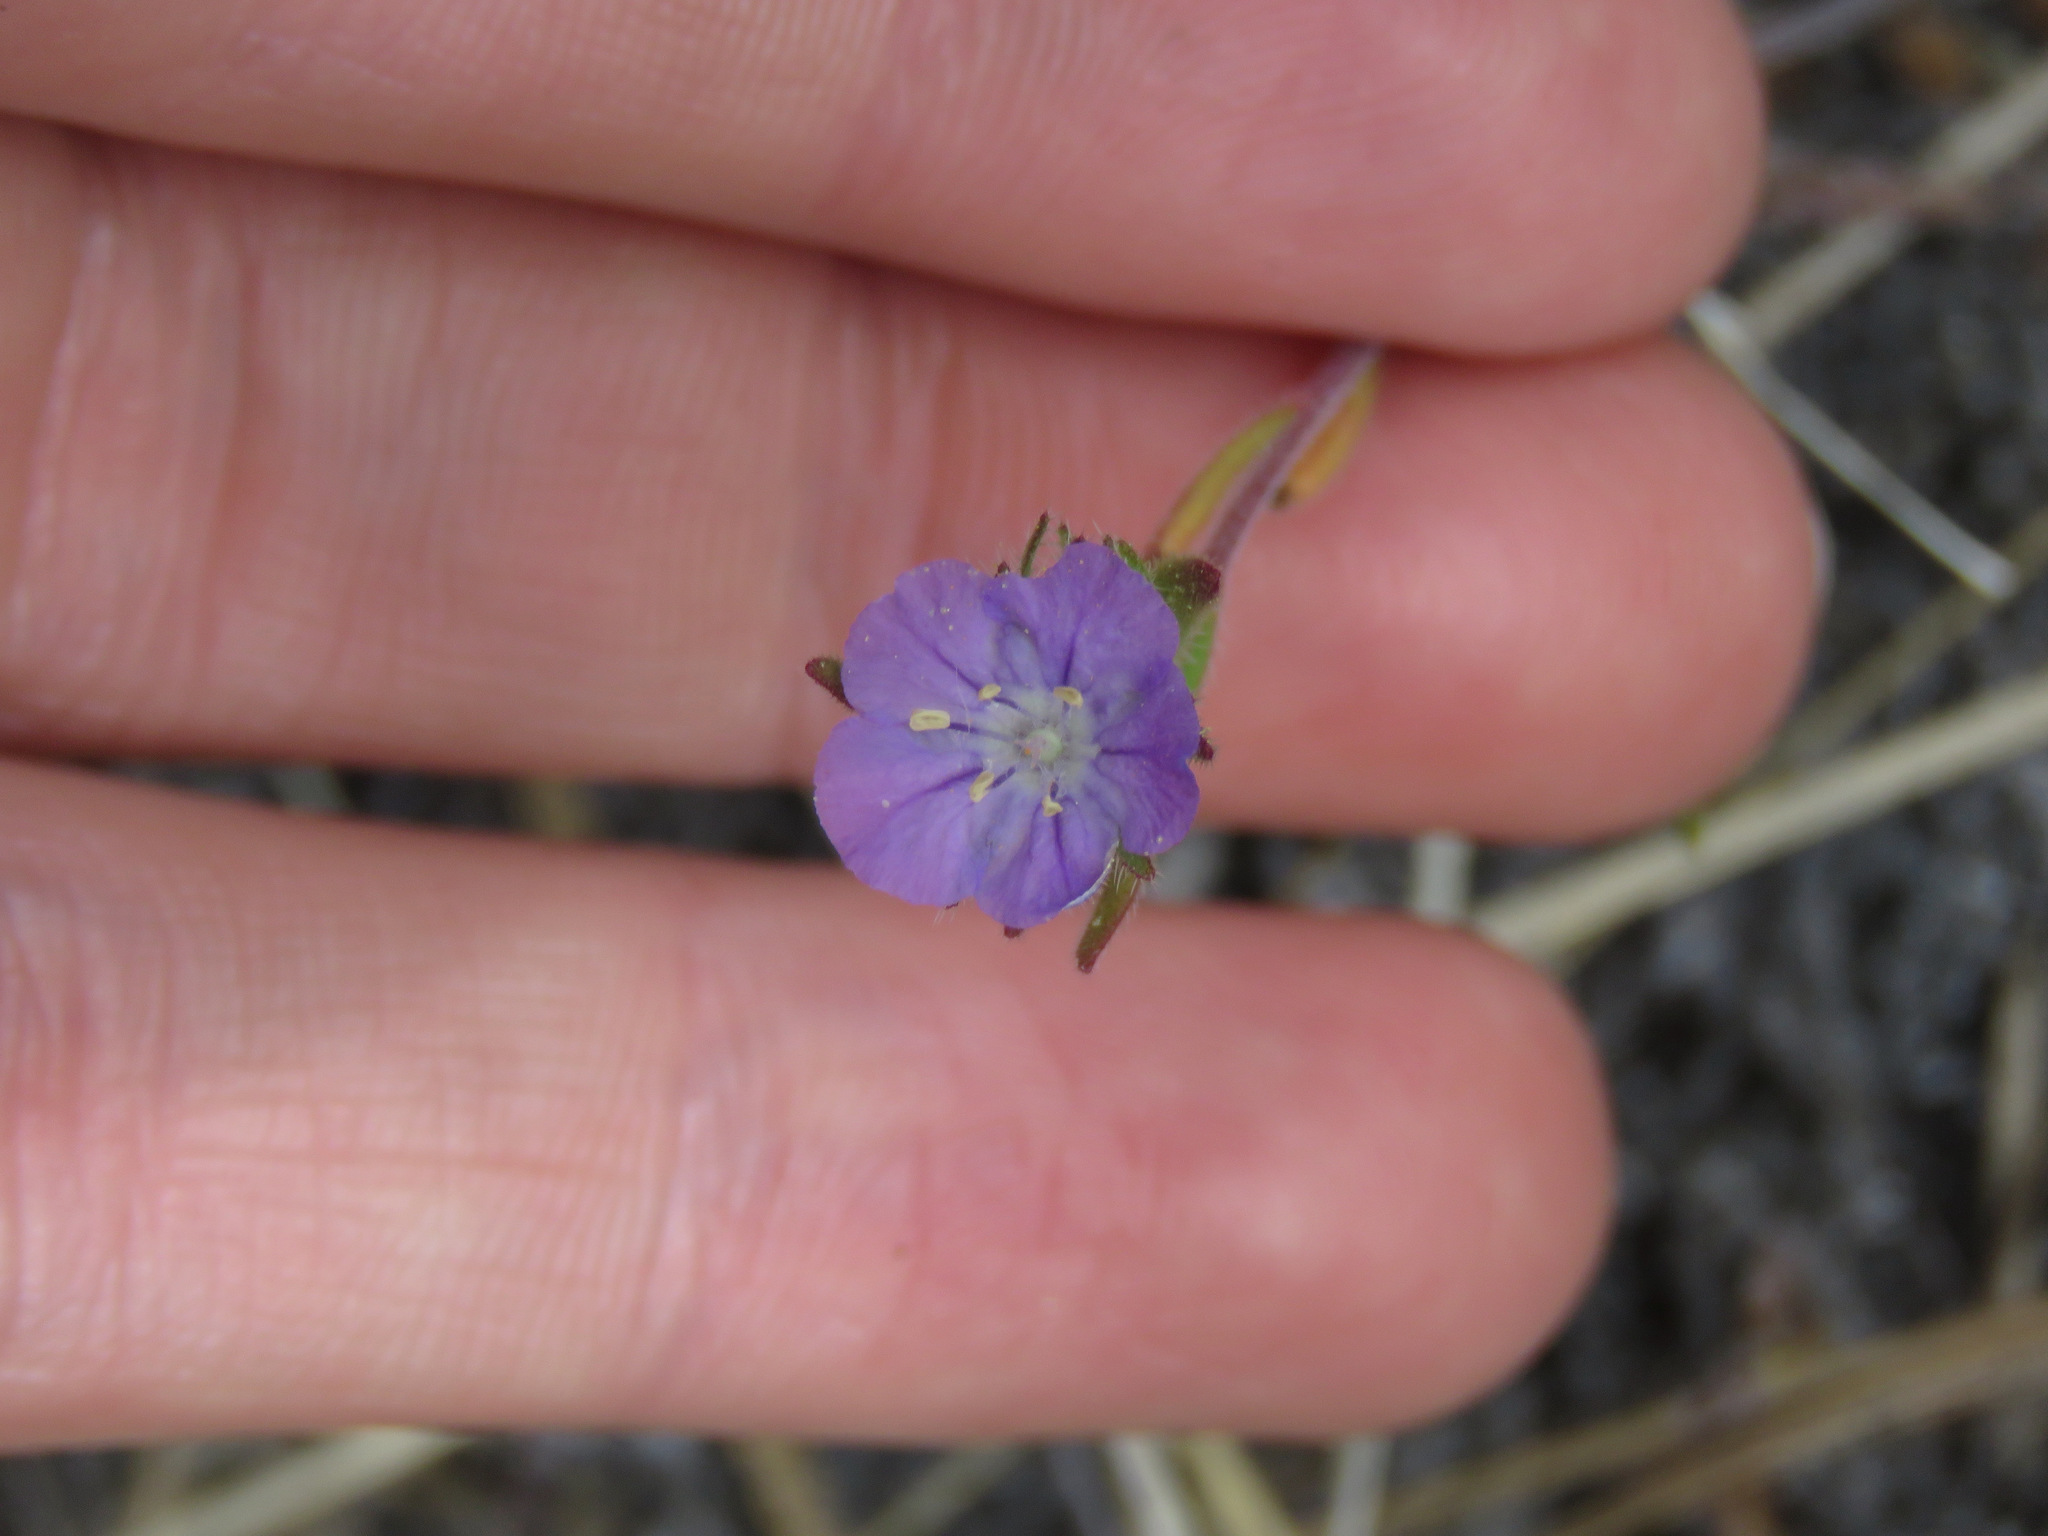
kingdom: Plantae
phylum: Tracheophyta
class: Magnoliopsida
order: Boraginales
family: Hydrophyllaceae
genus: Phacelia
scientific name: Phacelia linearis
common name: Linear-leaved phacelia
